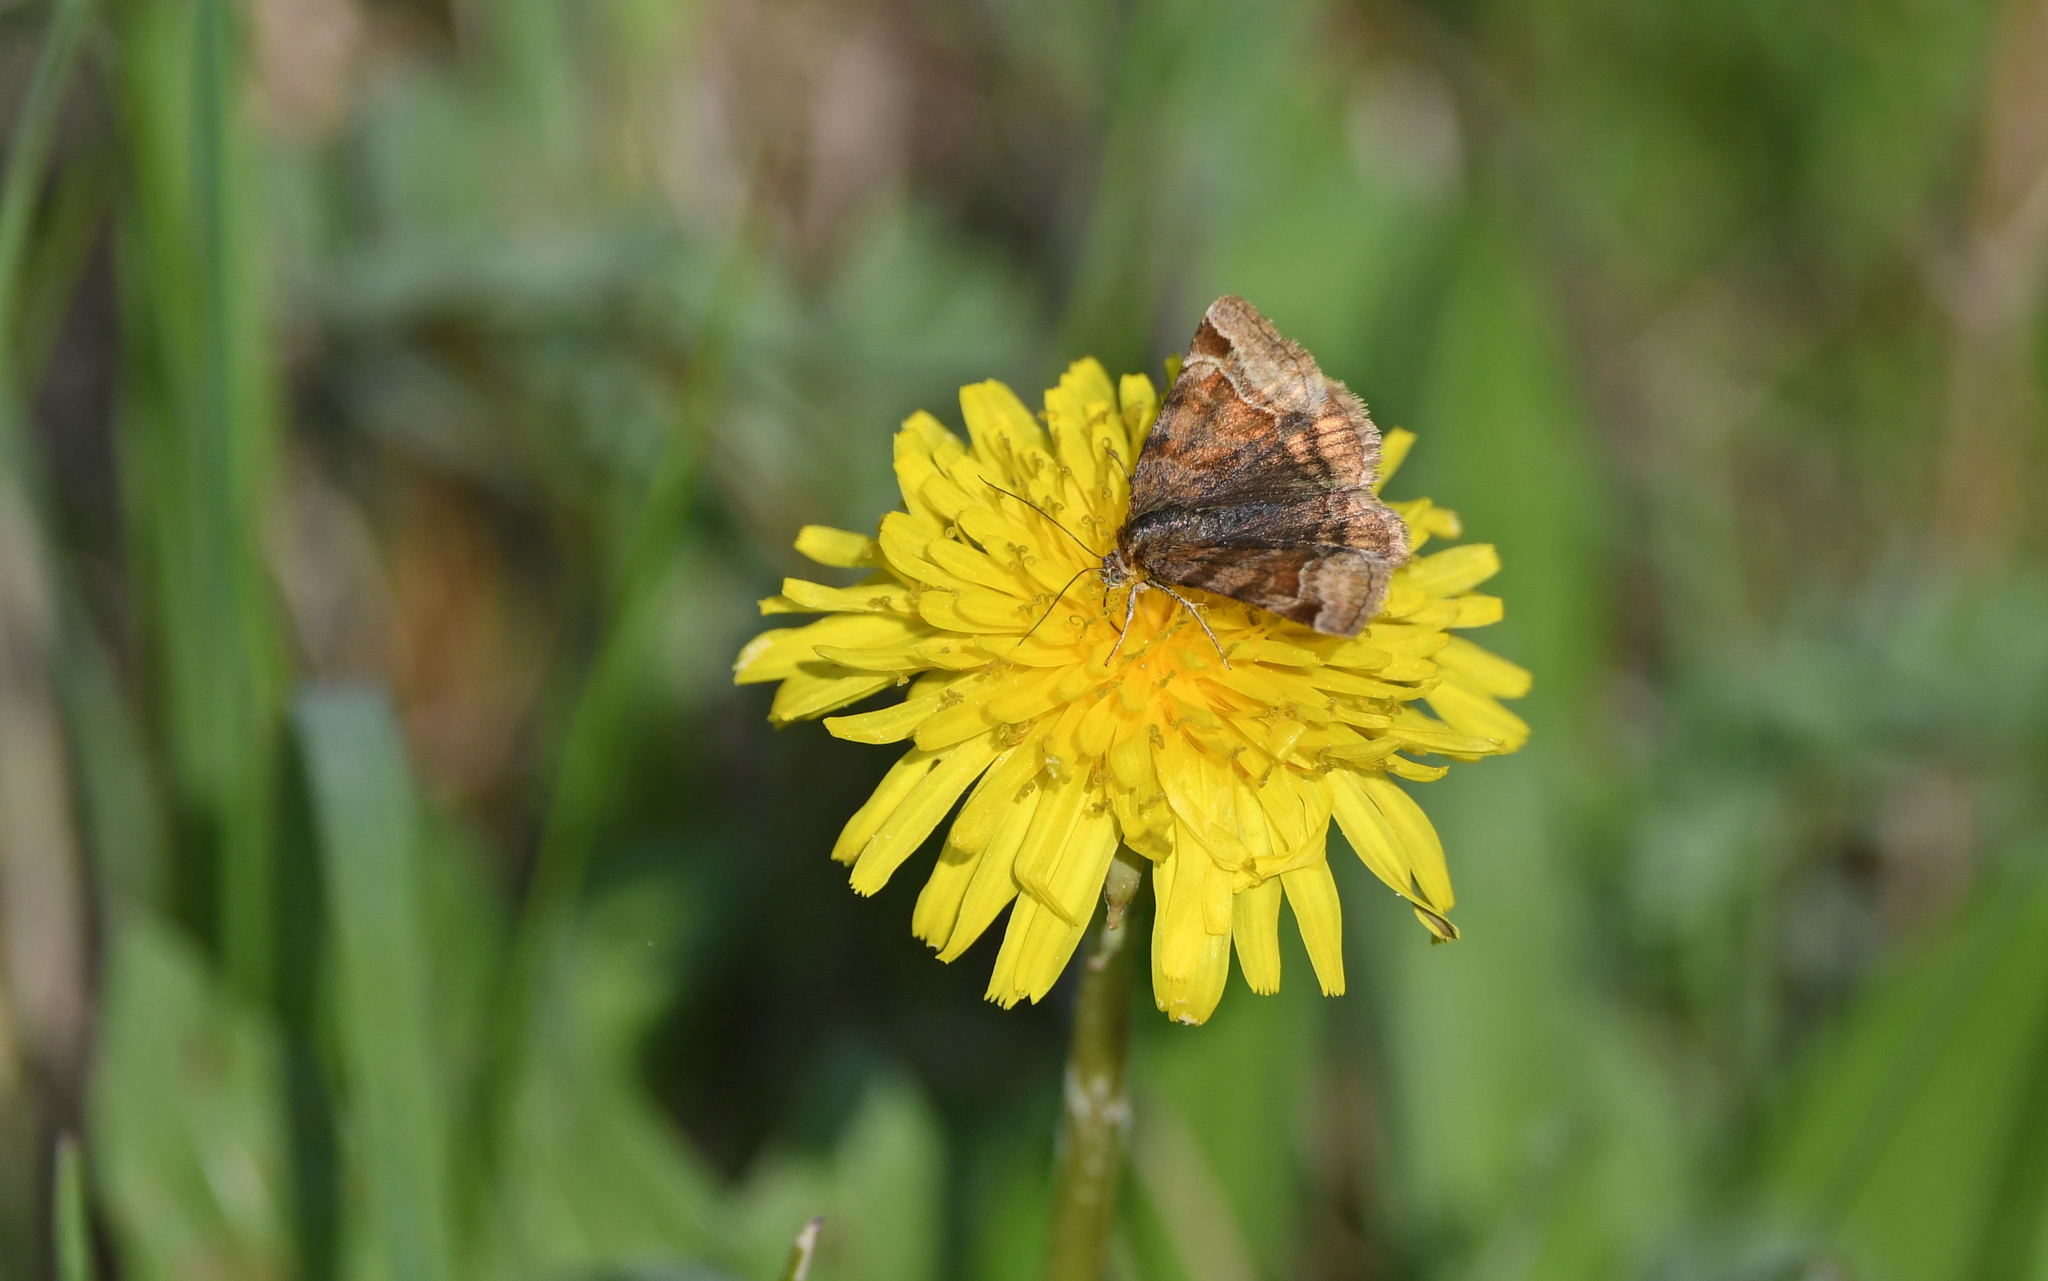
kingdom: Animalia
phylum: Arthropoda
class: Insecta
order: Lepidoptera
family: Erebidae
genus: Euclidia
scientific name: Euclidia glyphica
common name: Burnet companion
